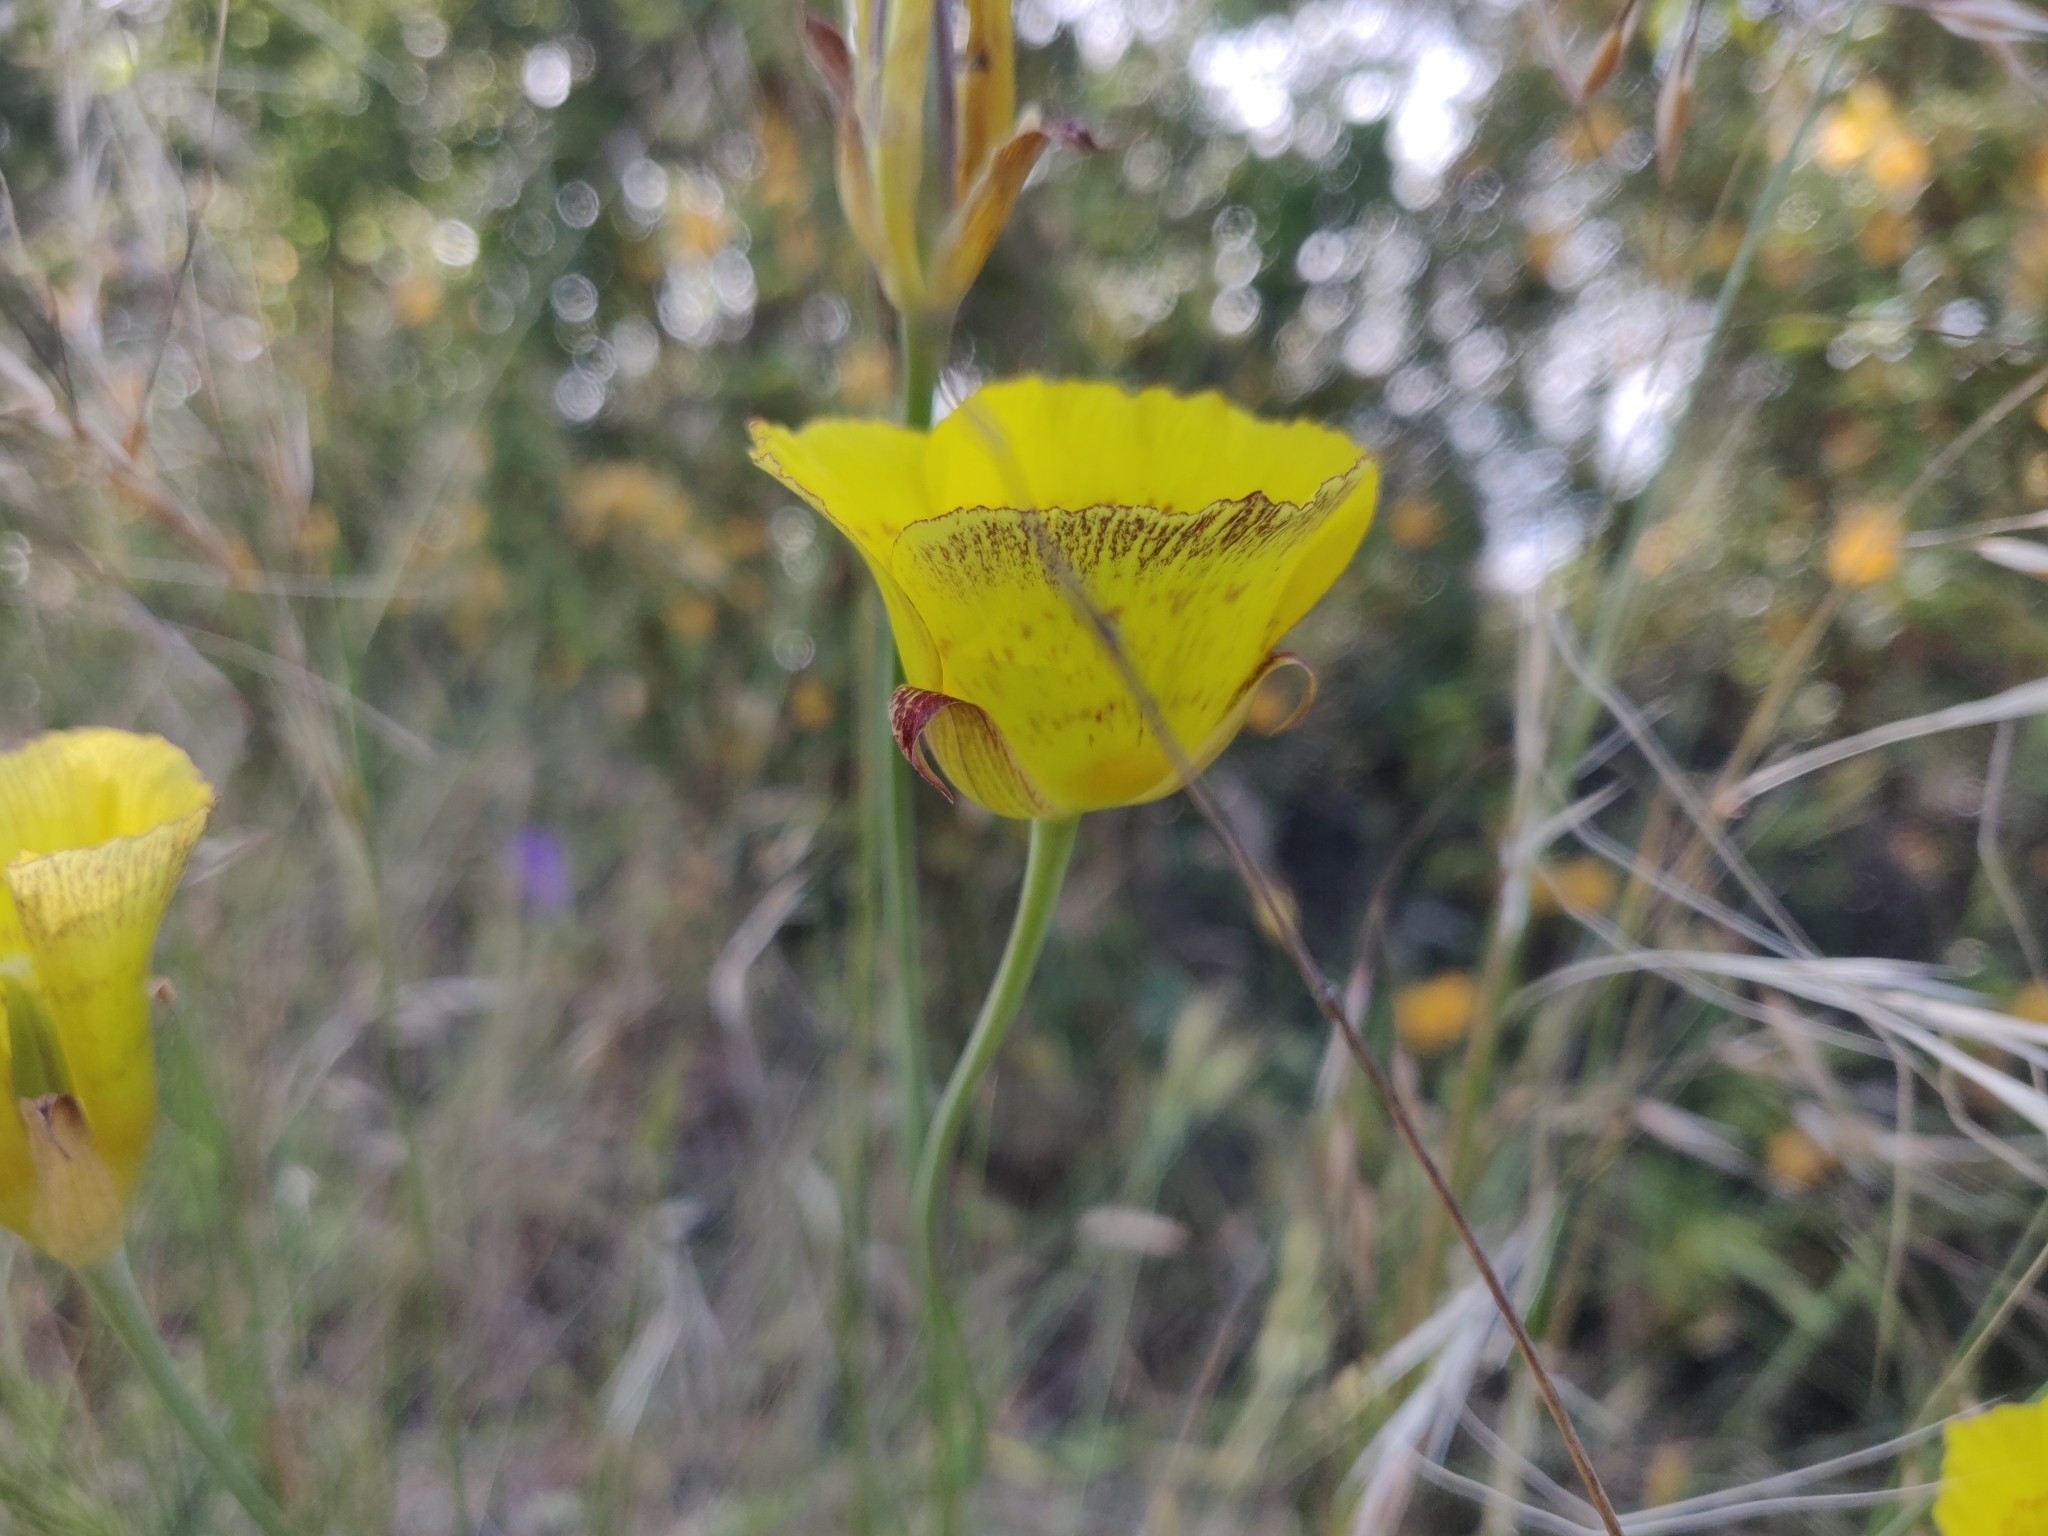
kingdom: Plantae
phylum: Tracheophyta
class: Liliopsida
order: Liliales
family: Liliaceae
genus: Calochortus
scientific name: Calochortus luteus
